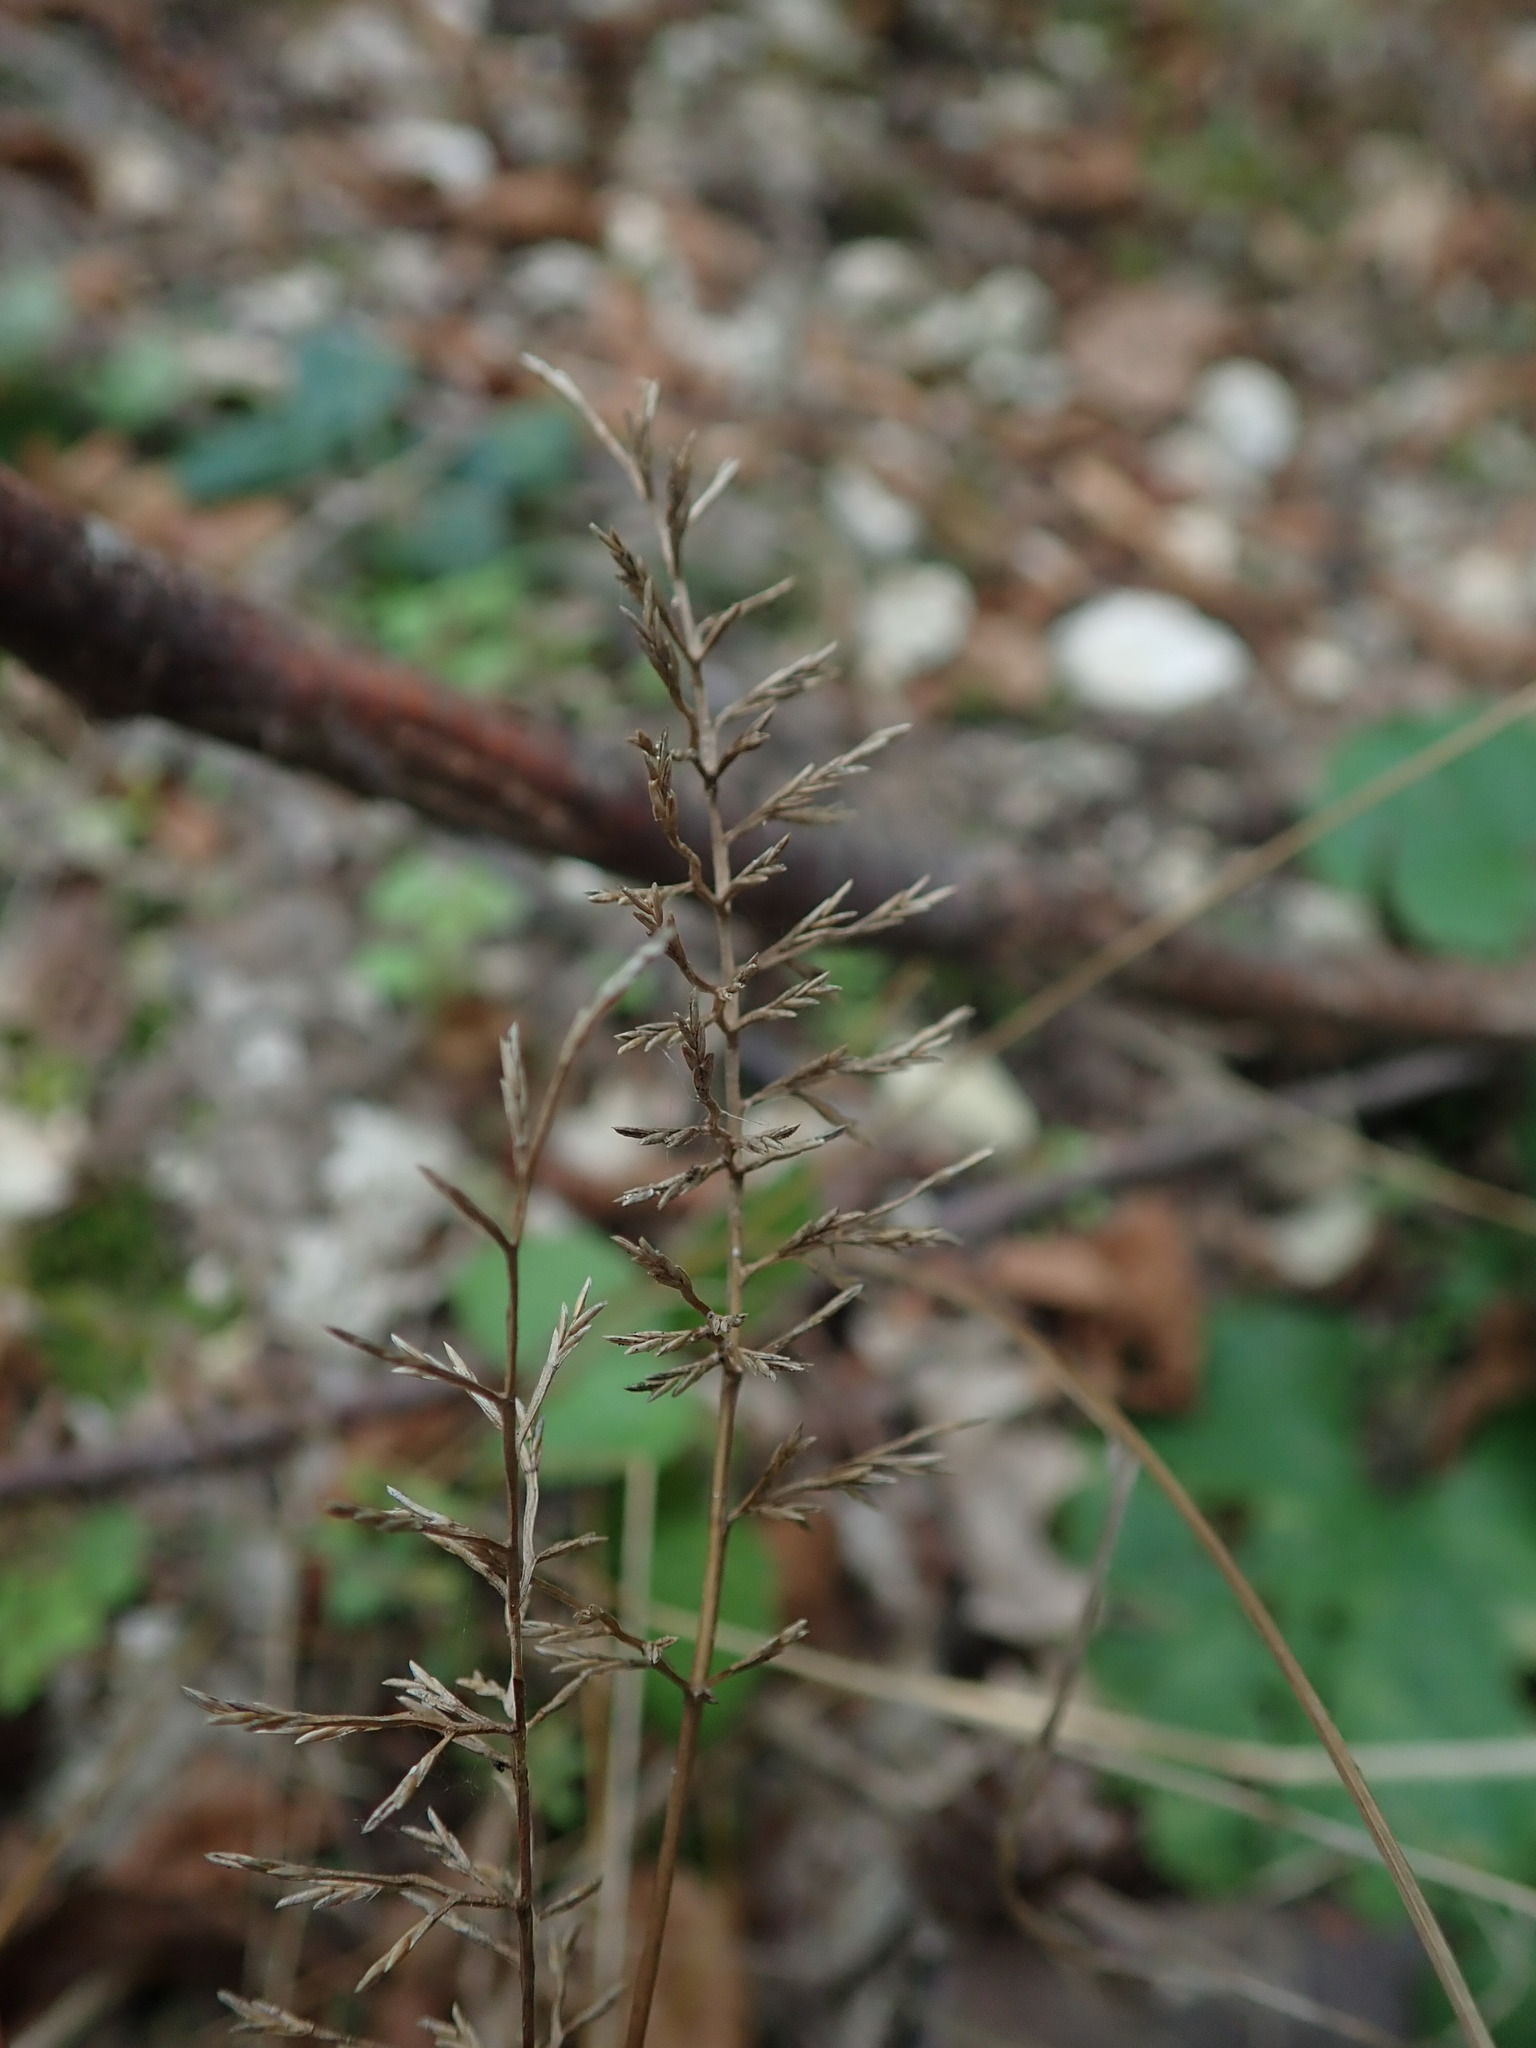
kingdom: Plantae
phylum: Tracheophyta
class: Liliopsida
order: Poales
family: Poaceae
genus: Catapodium
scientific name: Catapodium rigidum
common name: Fern-grass
